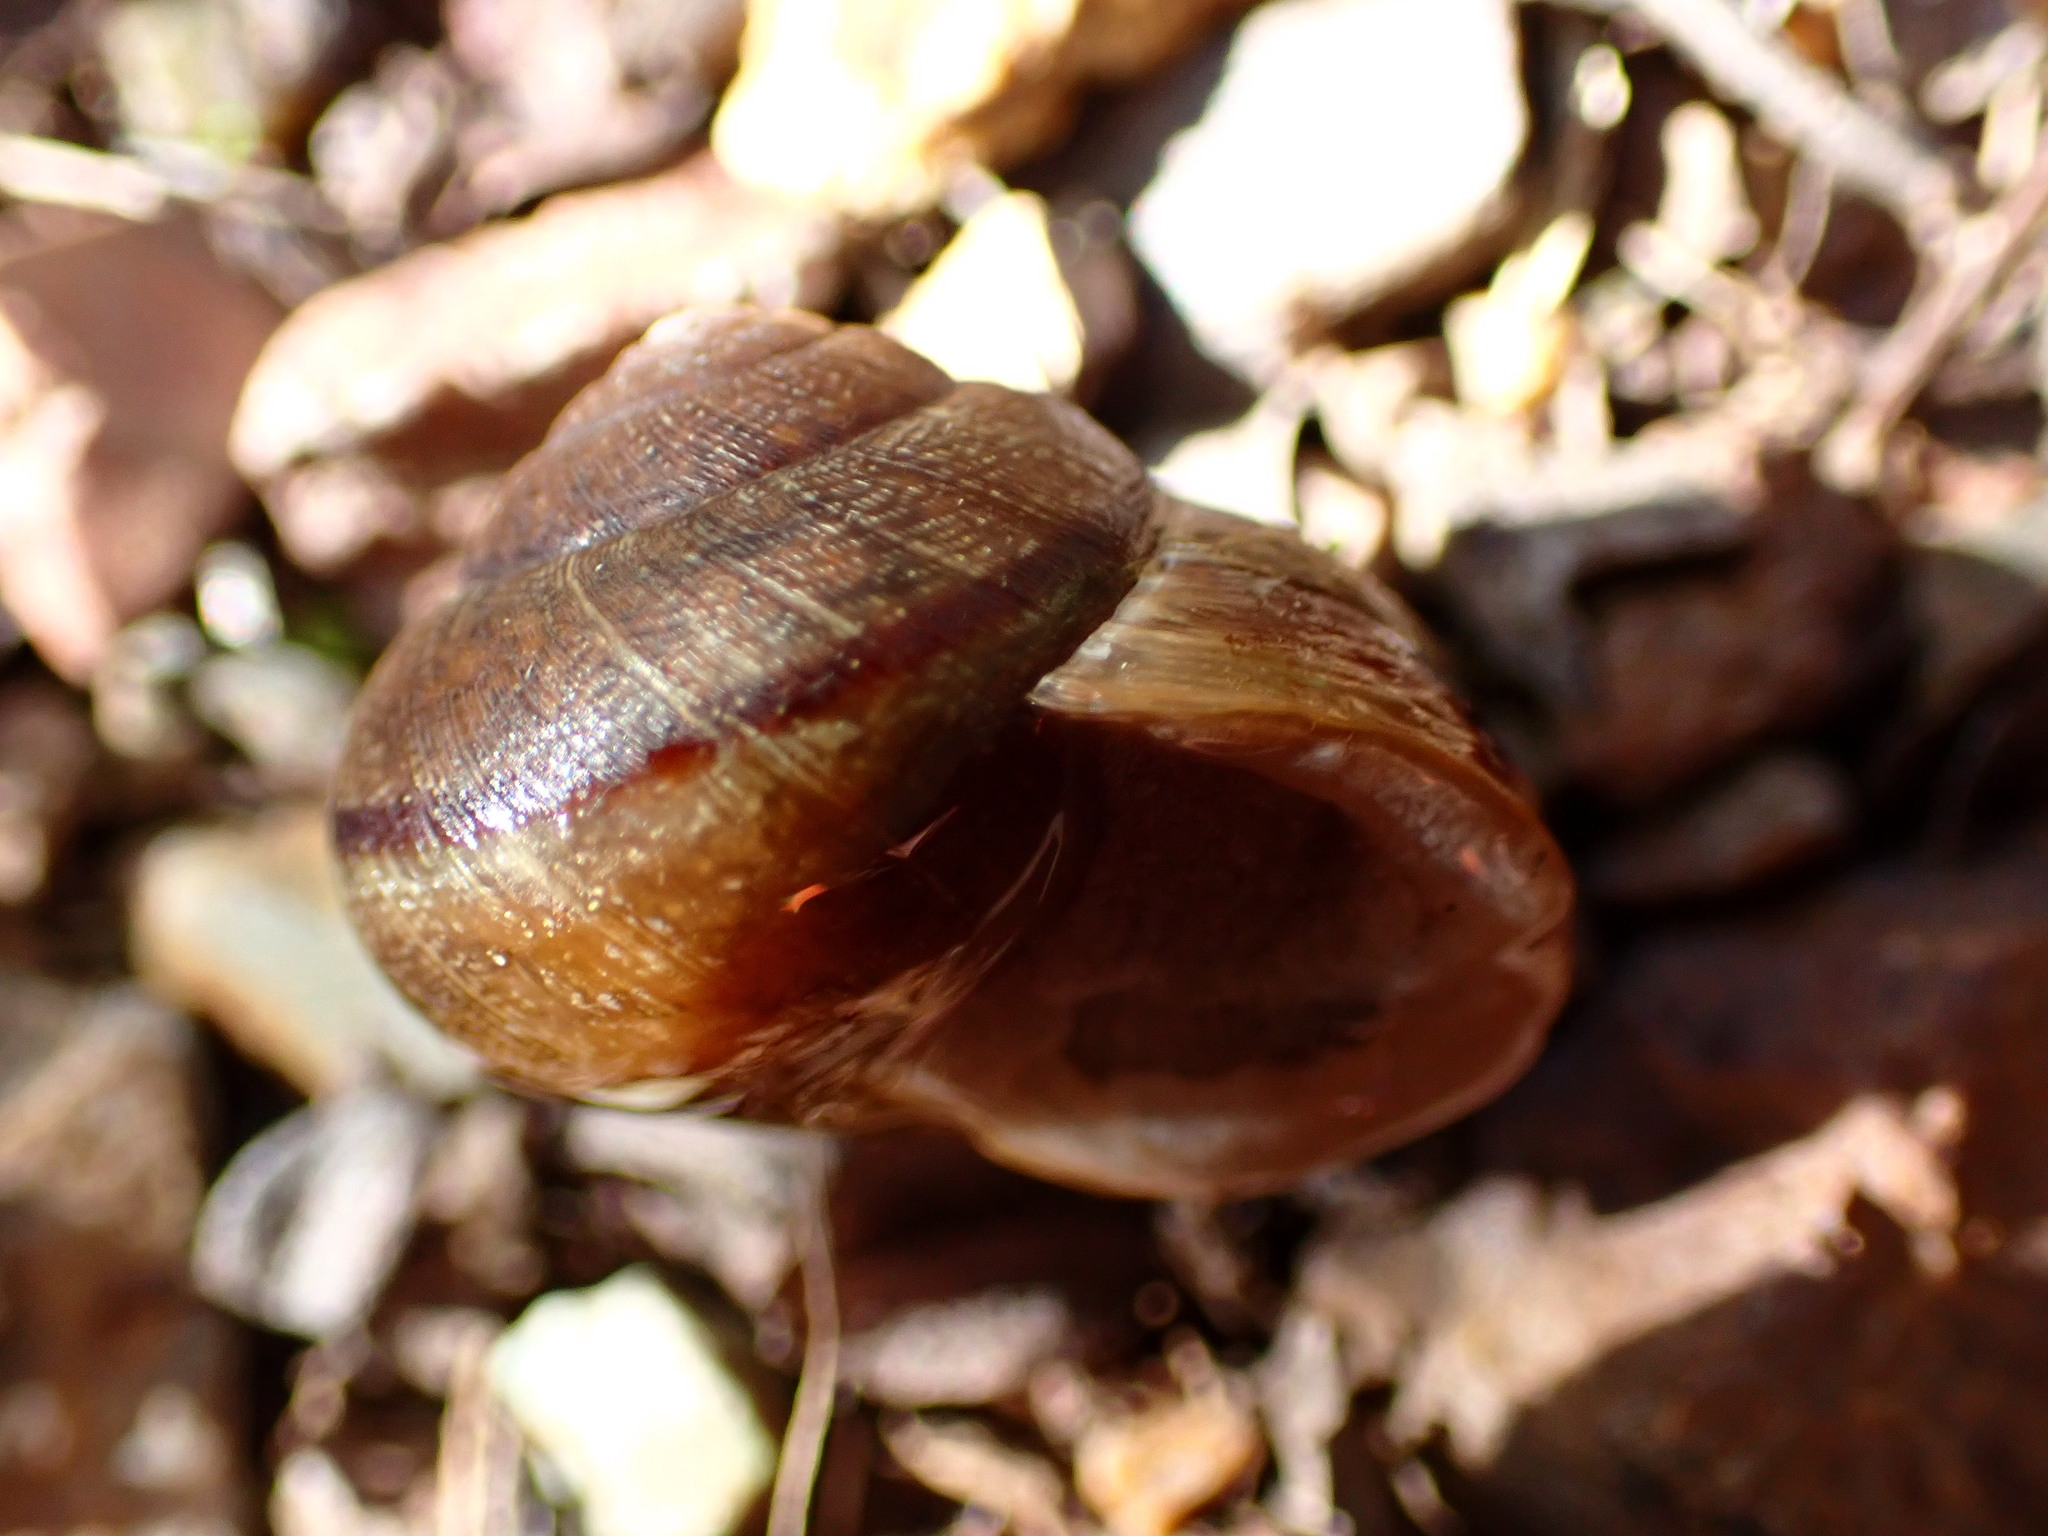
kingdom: Animalia
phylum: Mollusca
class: Gastropoda
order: Stylommatophora
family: Xanthonychidae
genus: Helminthoglypta
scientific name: Helminthoglypta nickliniana
